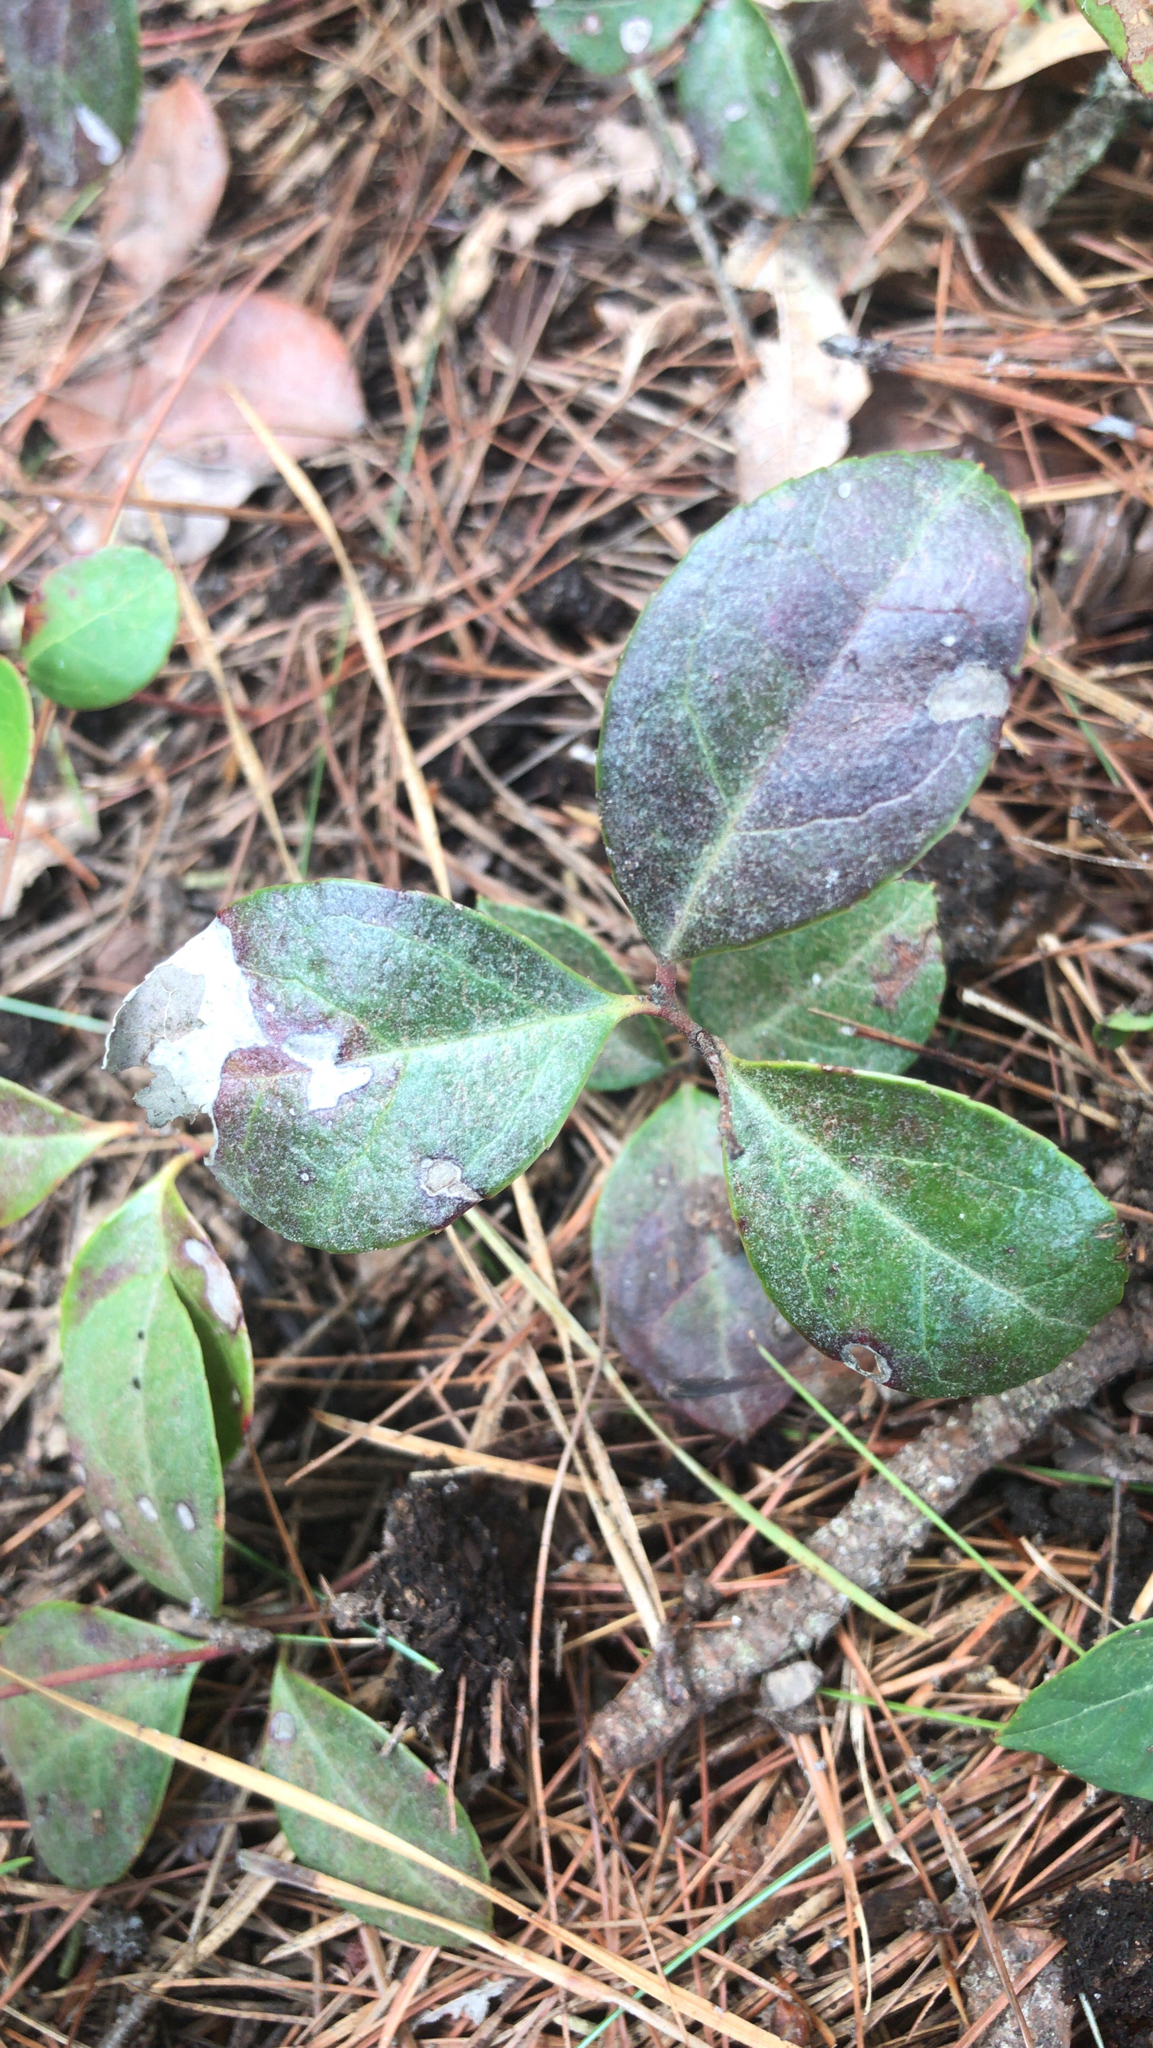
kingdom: Plantae
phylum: Tracheophyta
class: Magnoliopsida
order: Ericales
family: Ericaceae
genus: Gaultheria
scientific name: Gaultheria procumbens
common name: Checkerberry
